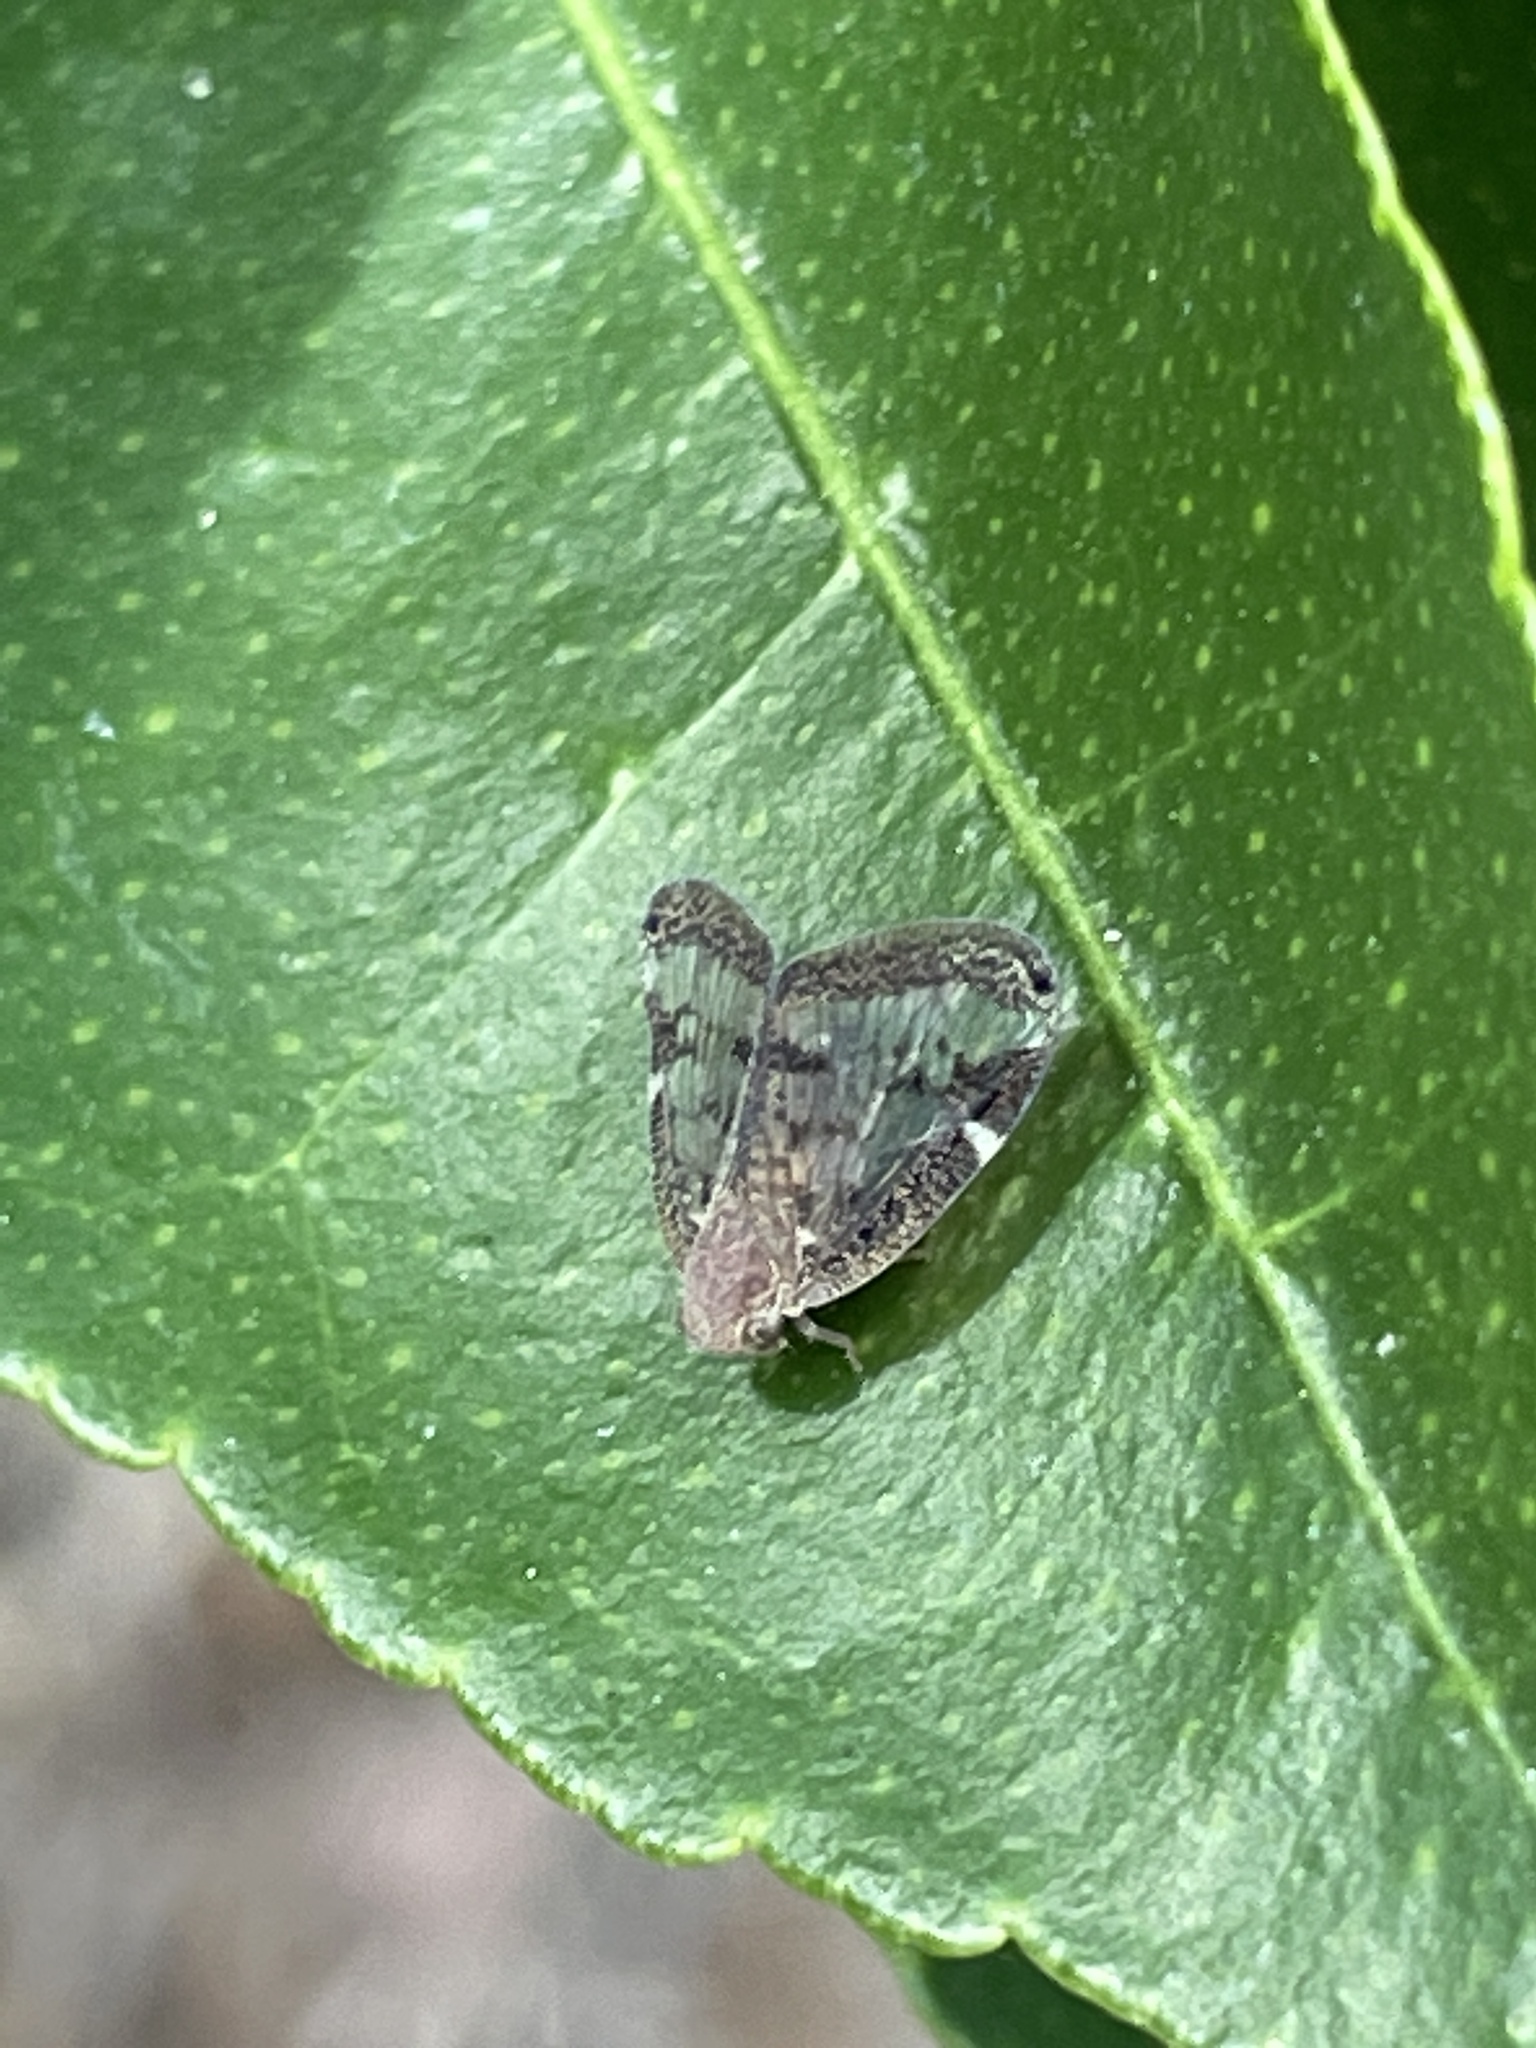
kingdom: Animalia
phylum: Arthropoda
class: Insecta
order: Hemiptera
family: Ricaniidae
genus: Scolypopa
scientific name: Scolypopa australis
